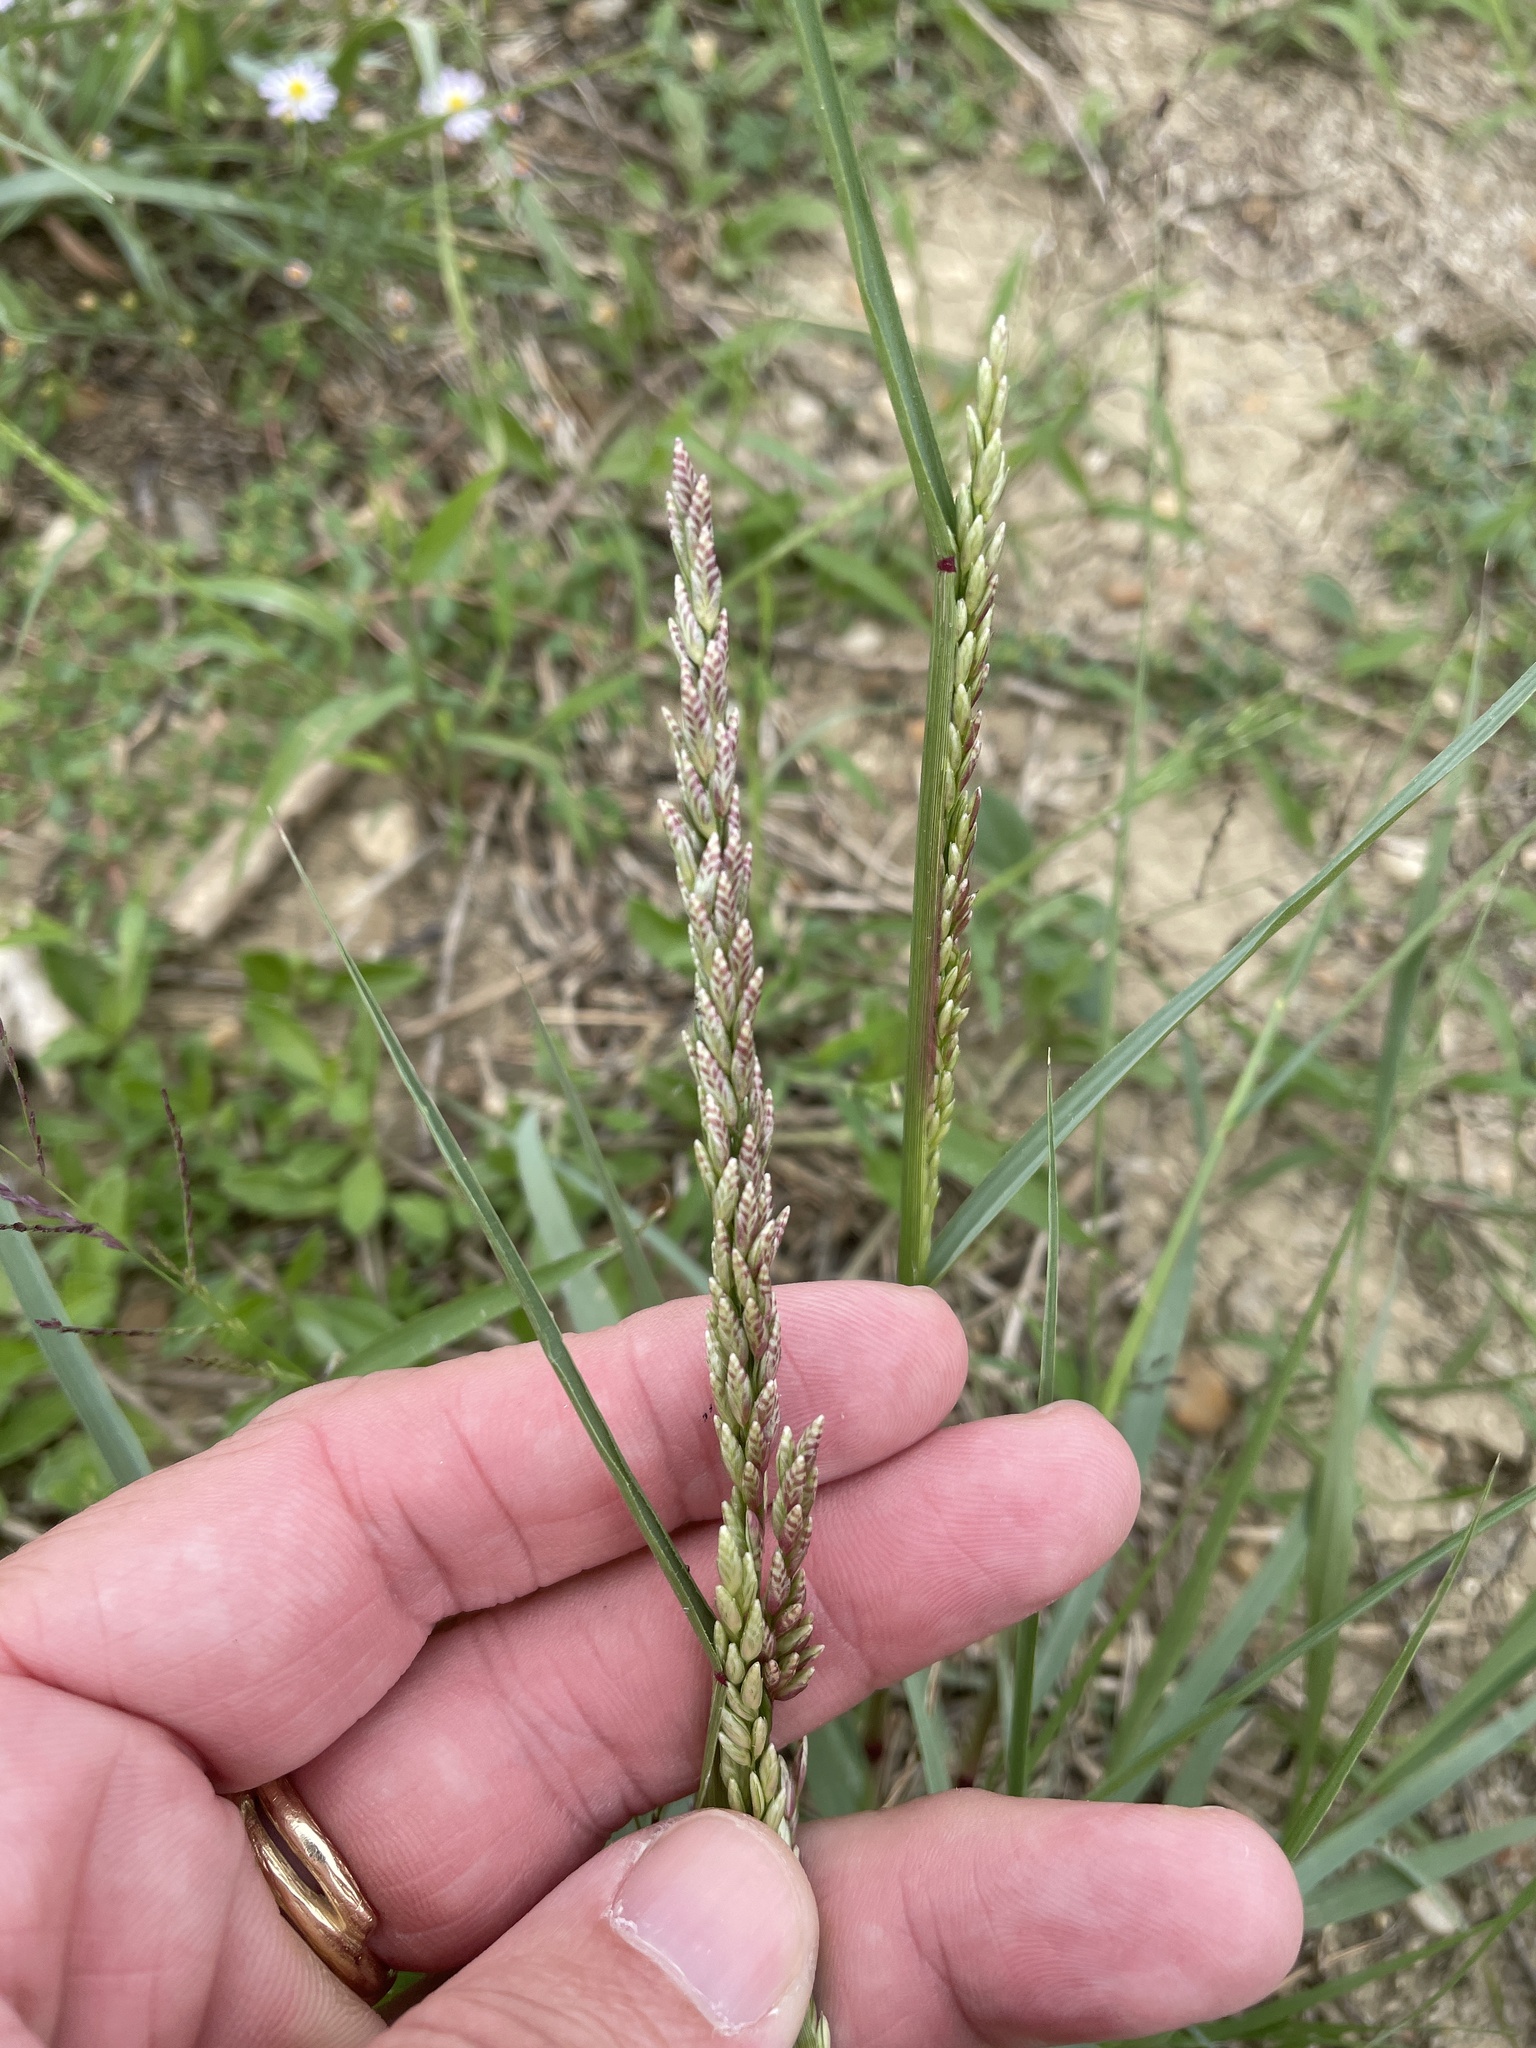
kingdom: Plantae
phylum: Tracheophyta
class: Liliopsida
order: Poales
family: Poaceae
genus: Tridens
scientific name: Tridens albescens
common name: White tridens
